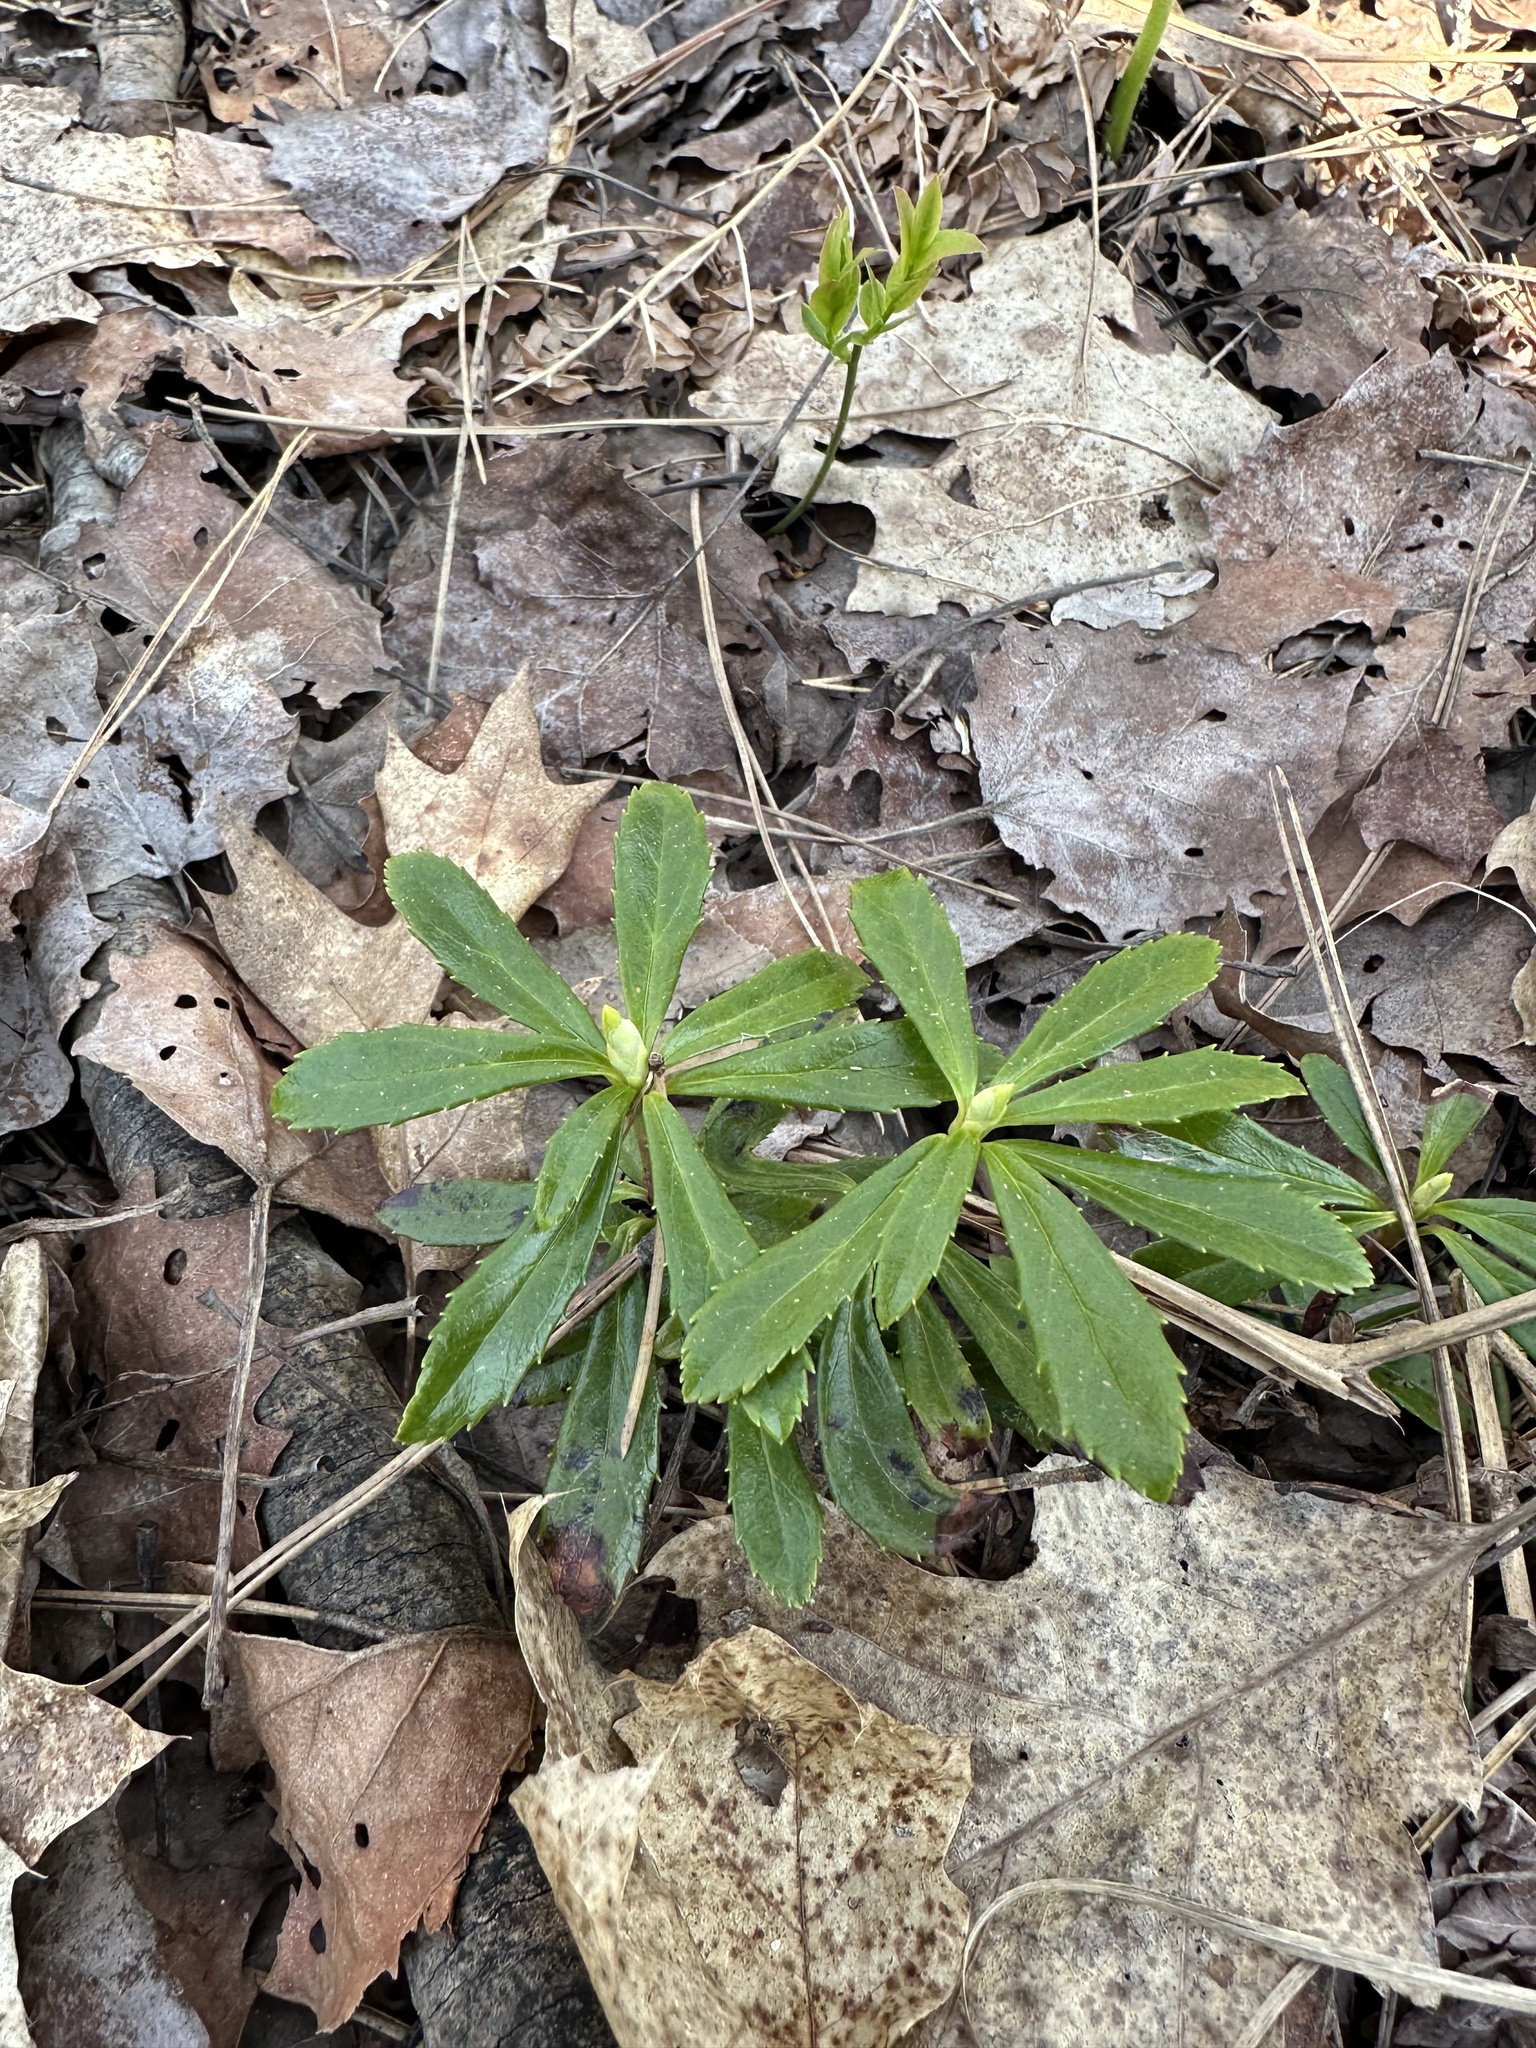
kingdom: Plantae
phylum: Tracheophyta
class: Magnoliopsida
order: Ericales
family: Ericaceae
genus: Chimaphila
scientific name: Chimaphila umbellata
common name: Pipsissewa
